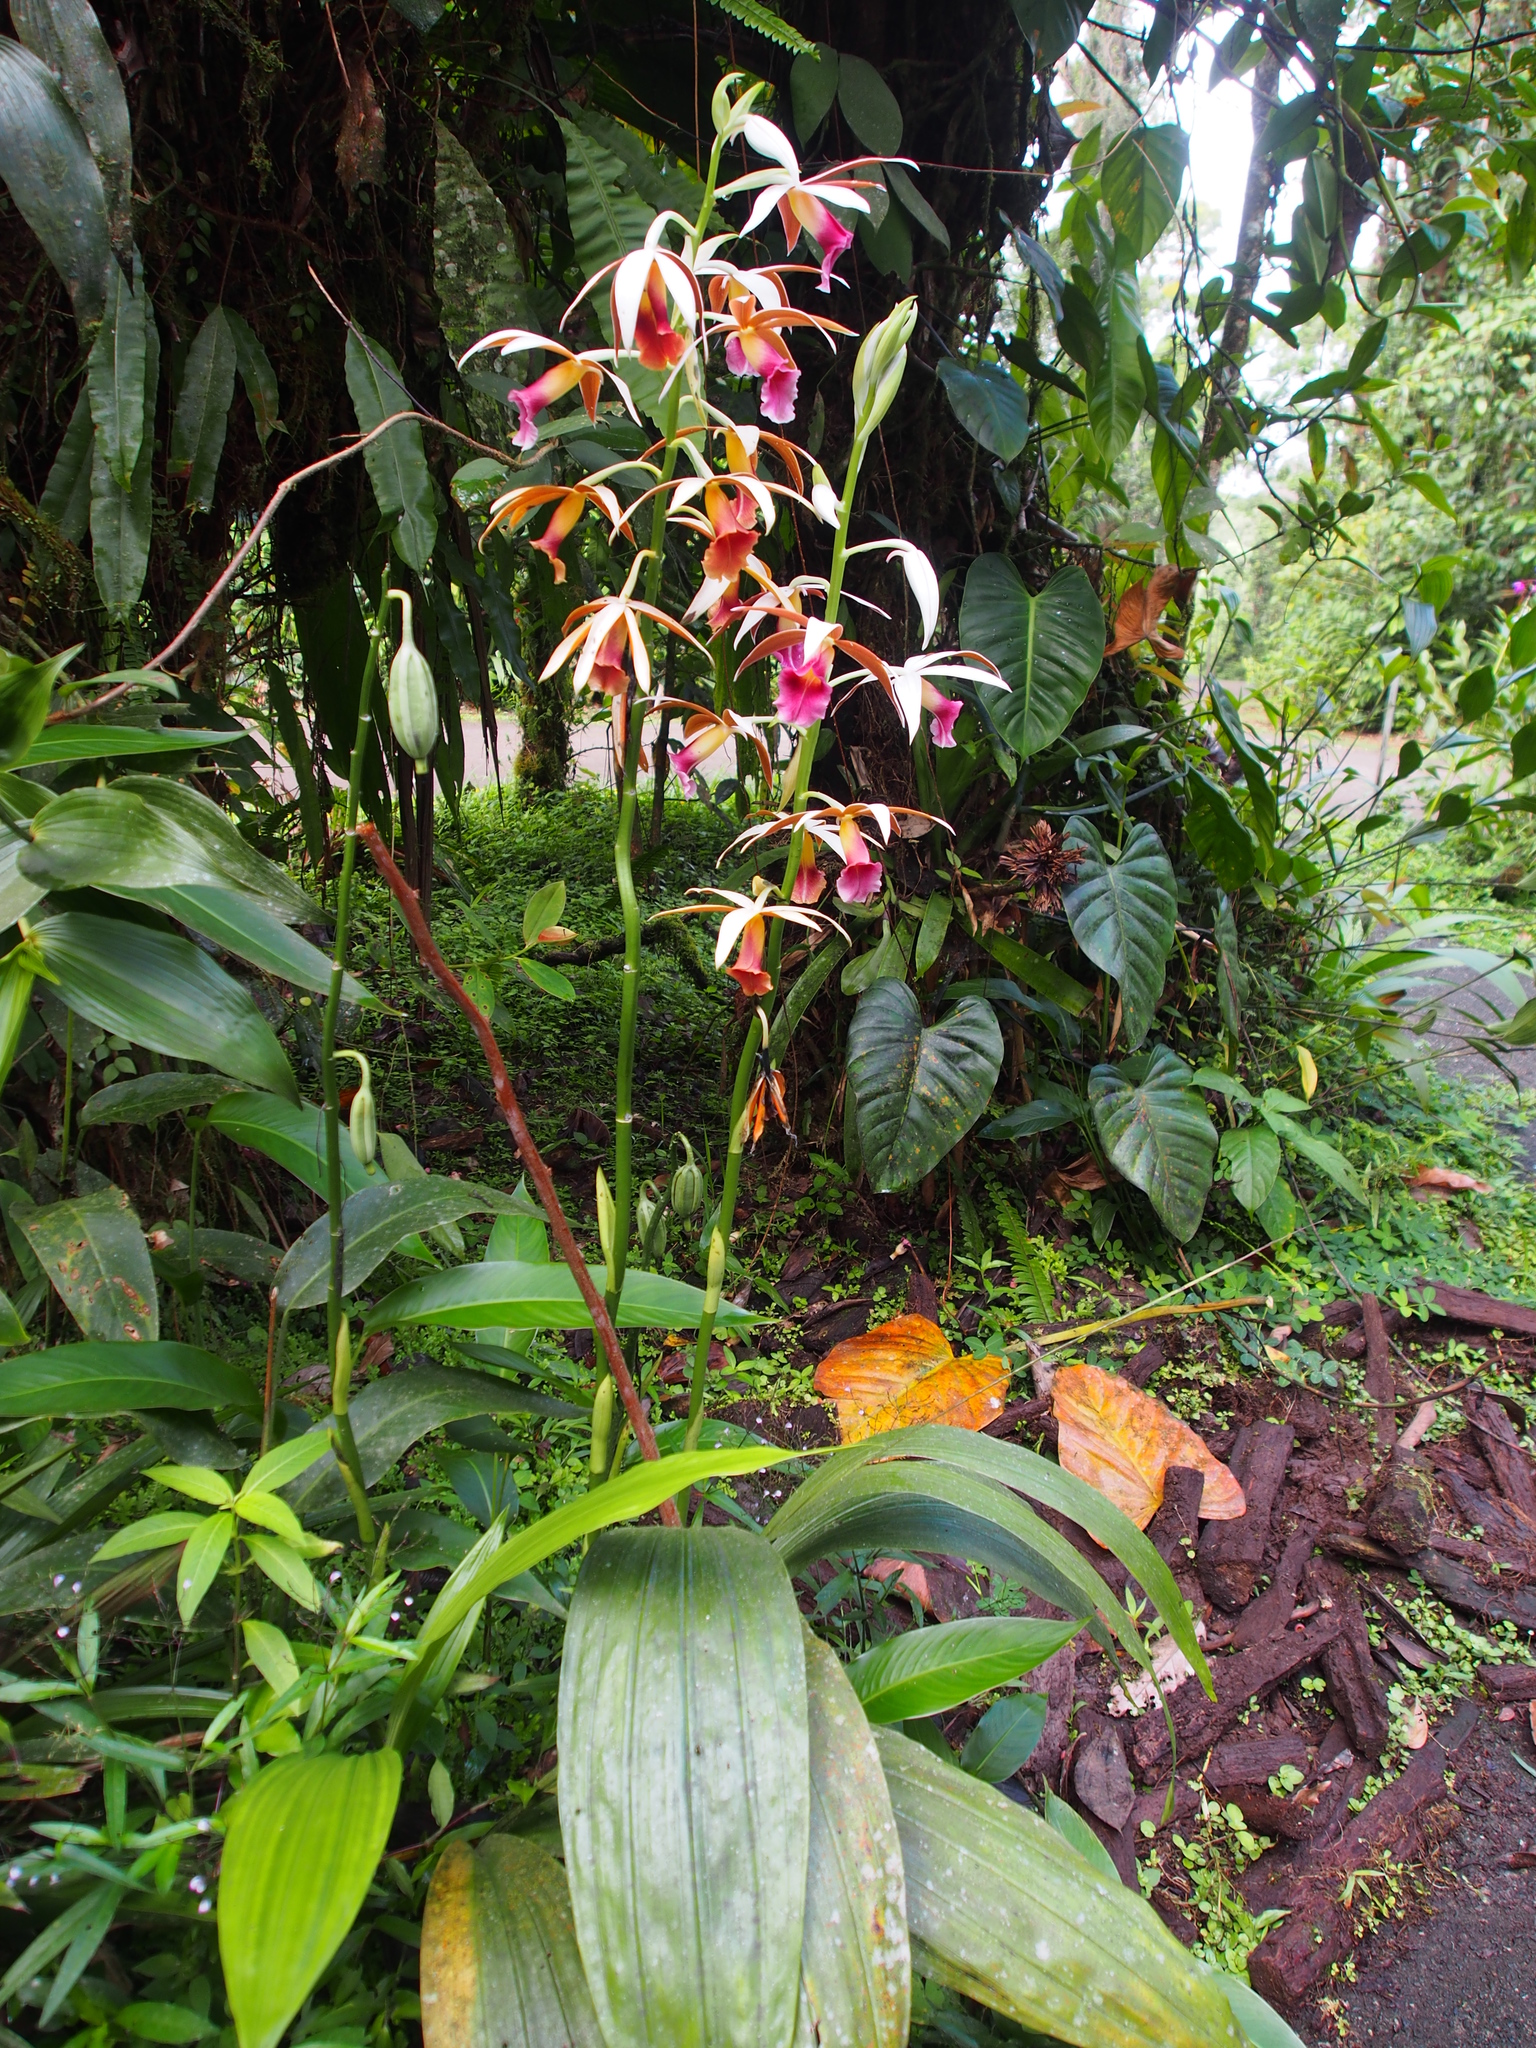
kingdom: Plantae
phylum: Tracheophyta
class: Liliopsida
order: Asparagales
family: Orchidaceae
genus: Calanthe
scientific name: Calanthe tankervilleae
